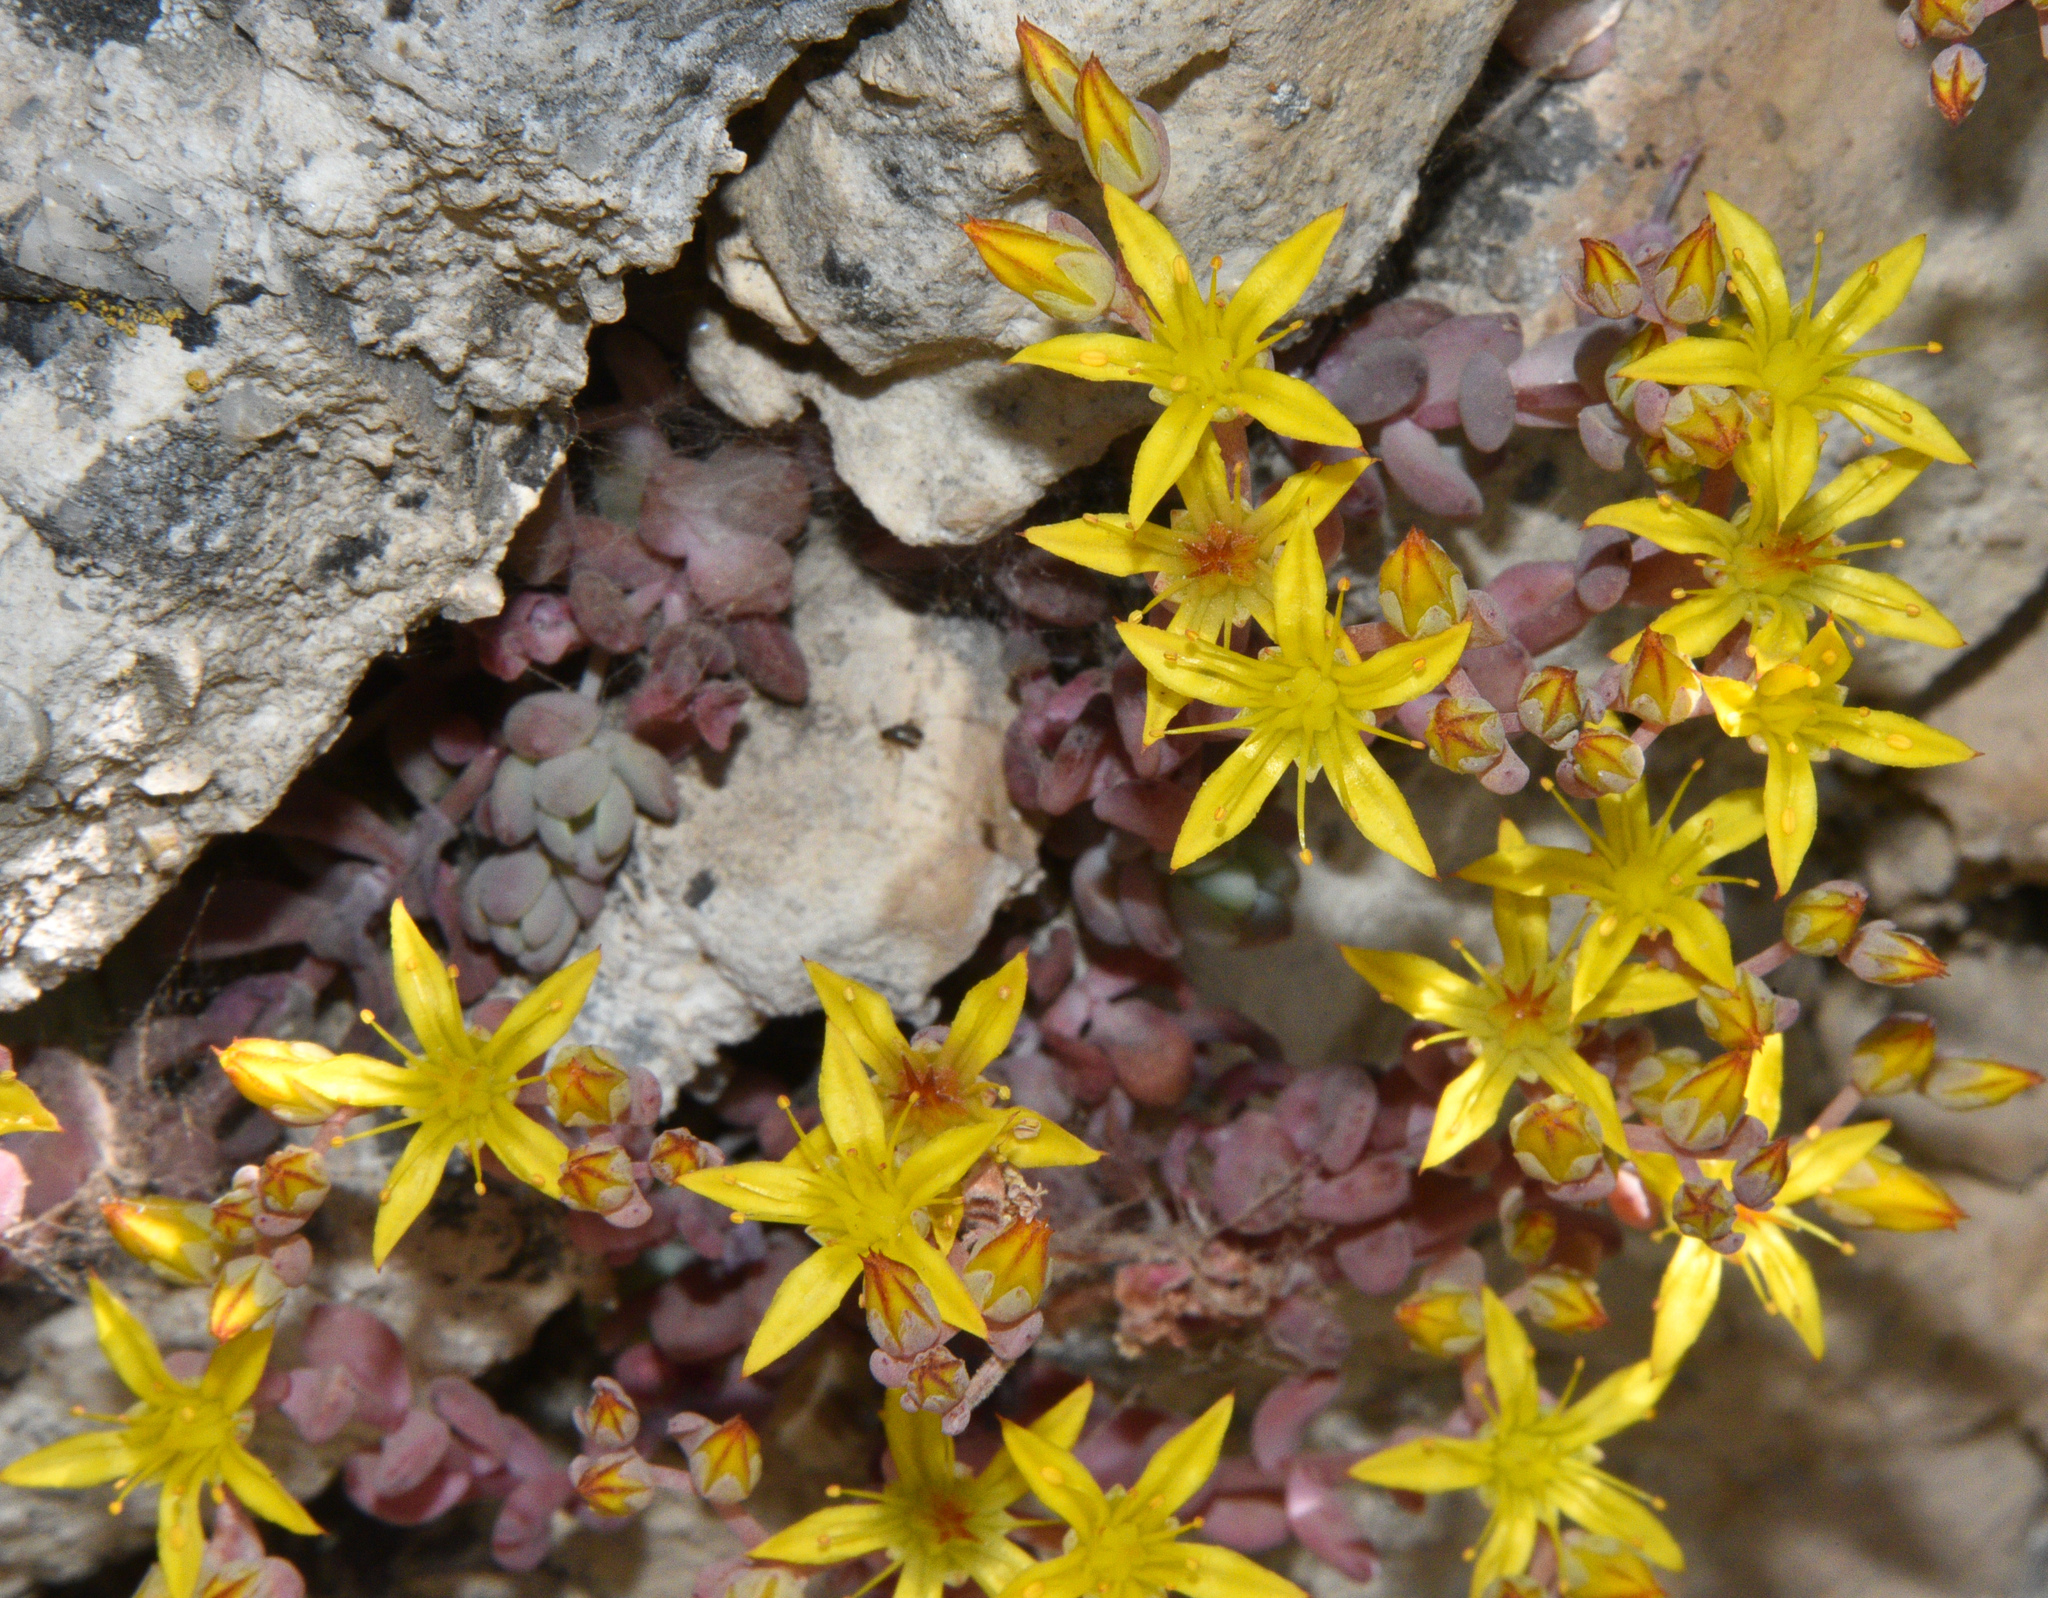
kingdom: Plantae
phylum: Tracheophyta
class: Magnoliopsida
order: Saxifragales
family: Crassulaceae
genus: Sedum
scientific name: Sedum debile
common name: Weak-stem stonecrop
